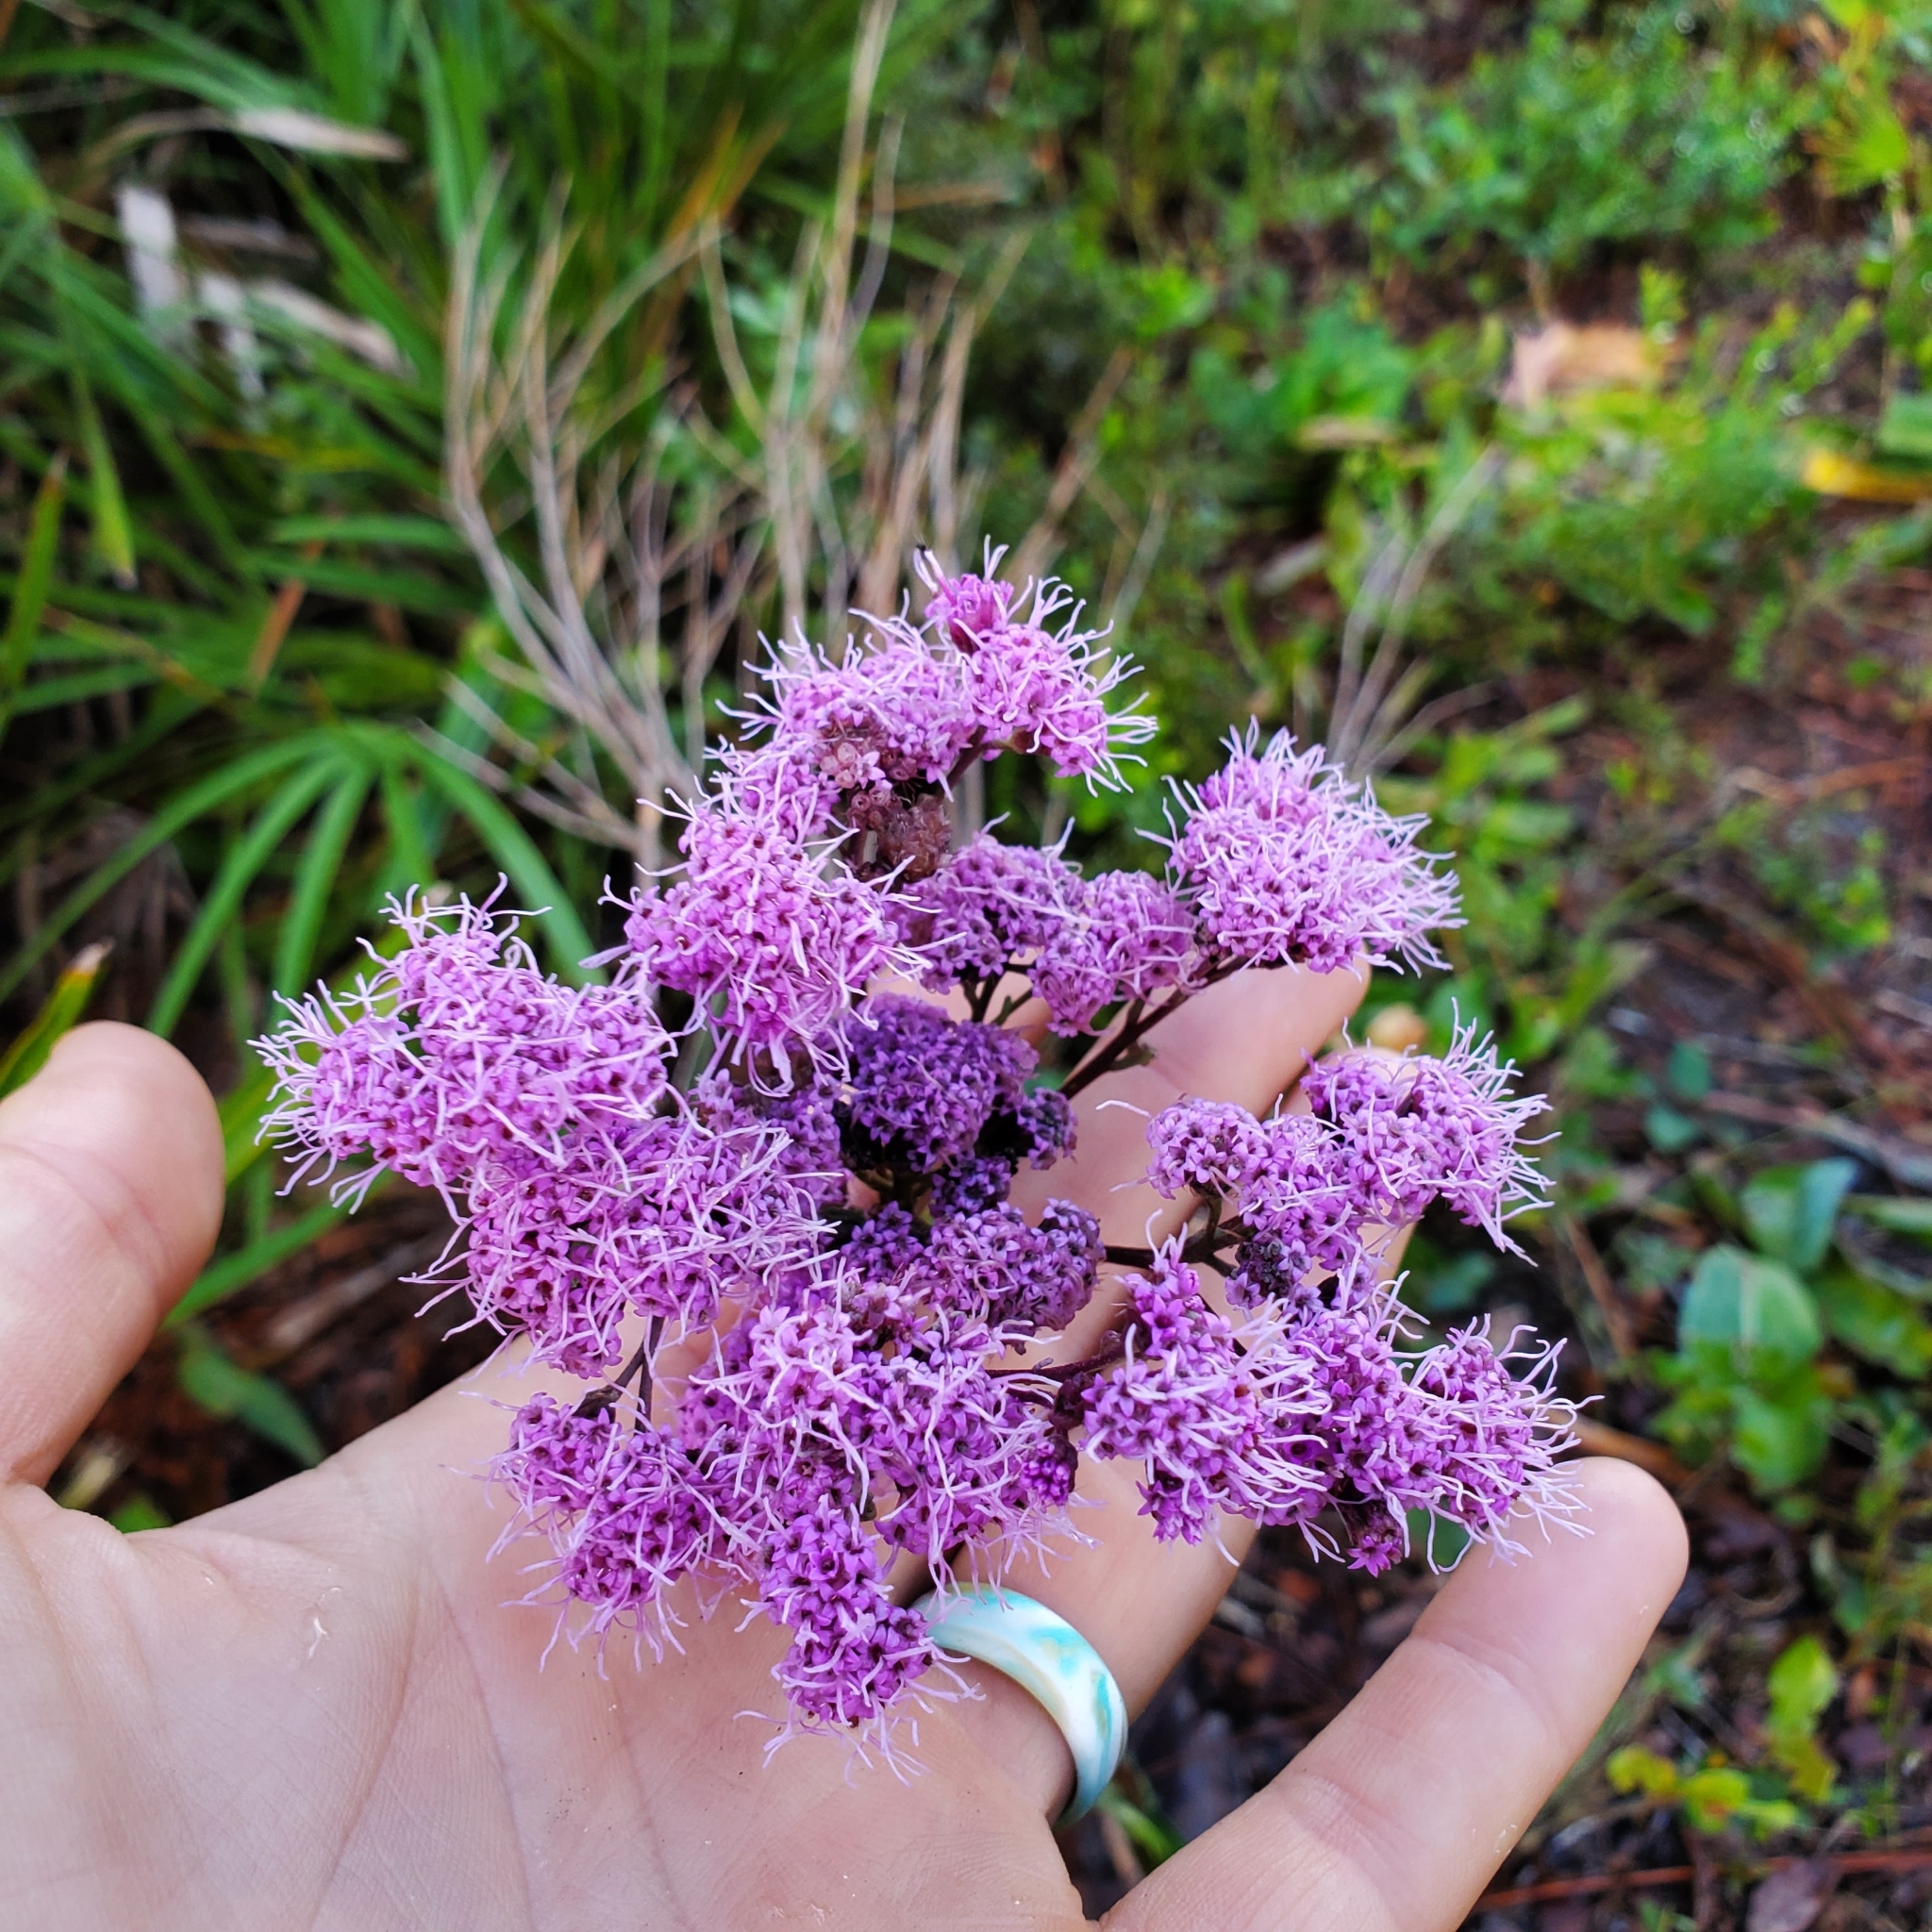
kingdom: Plantae
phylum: Tracheophyta
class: Magnoliopsida
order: Asterales
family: Asteraceae
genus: Carphephorus
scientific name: Carphephorus odoratissimus
